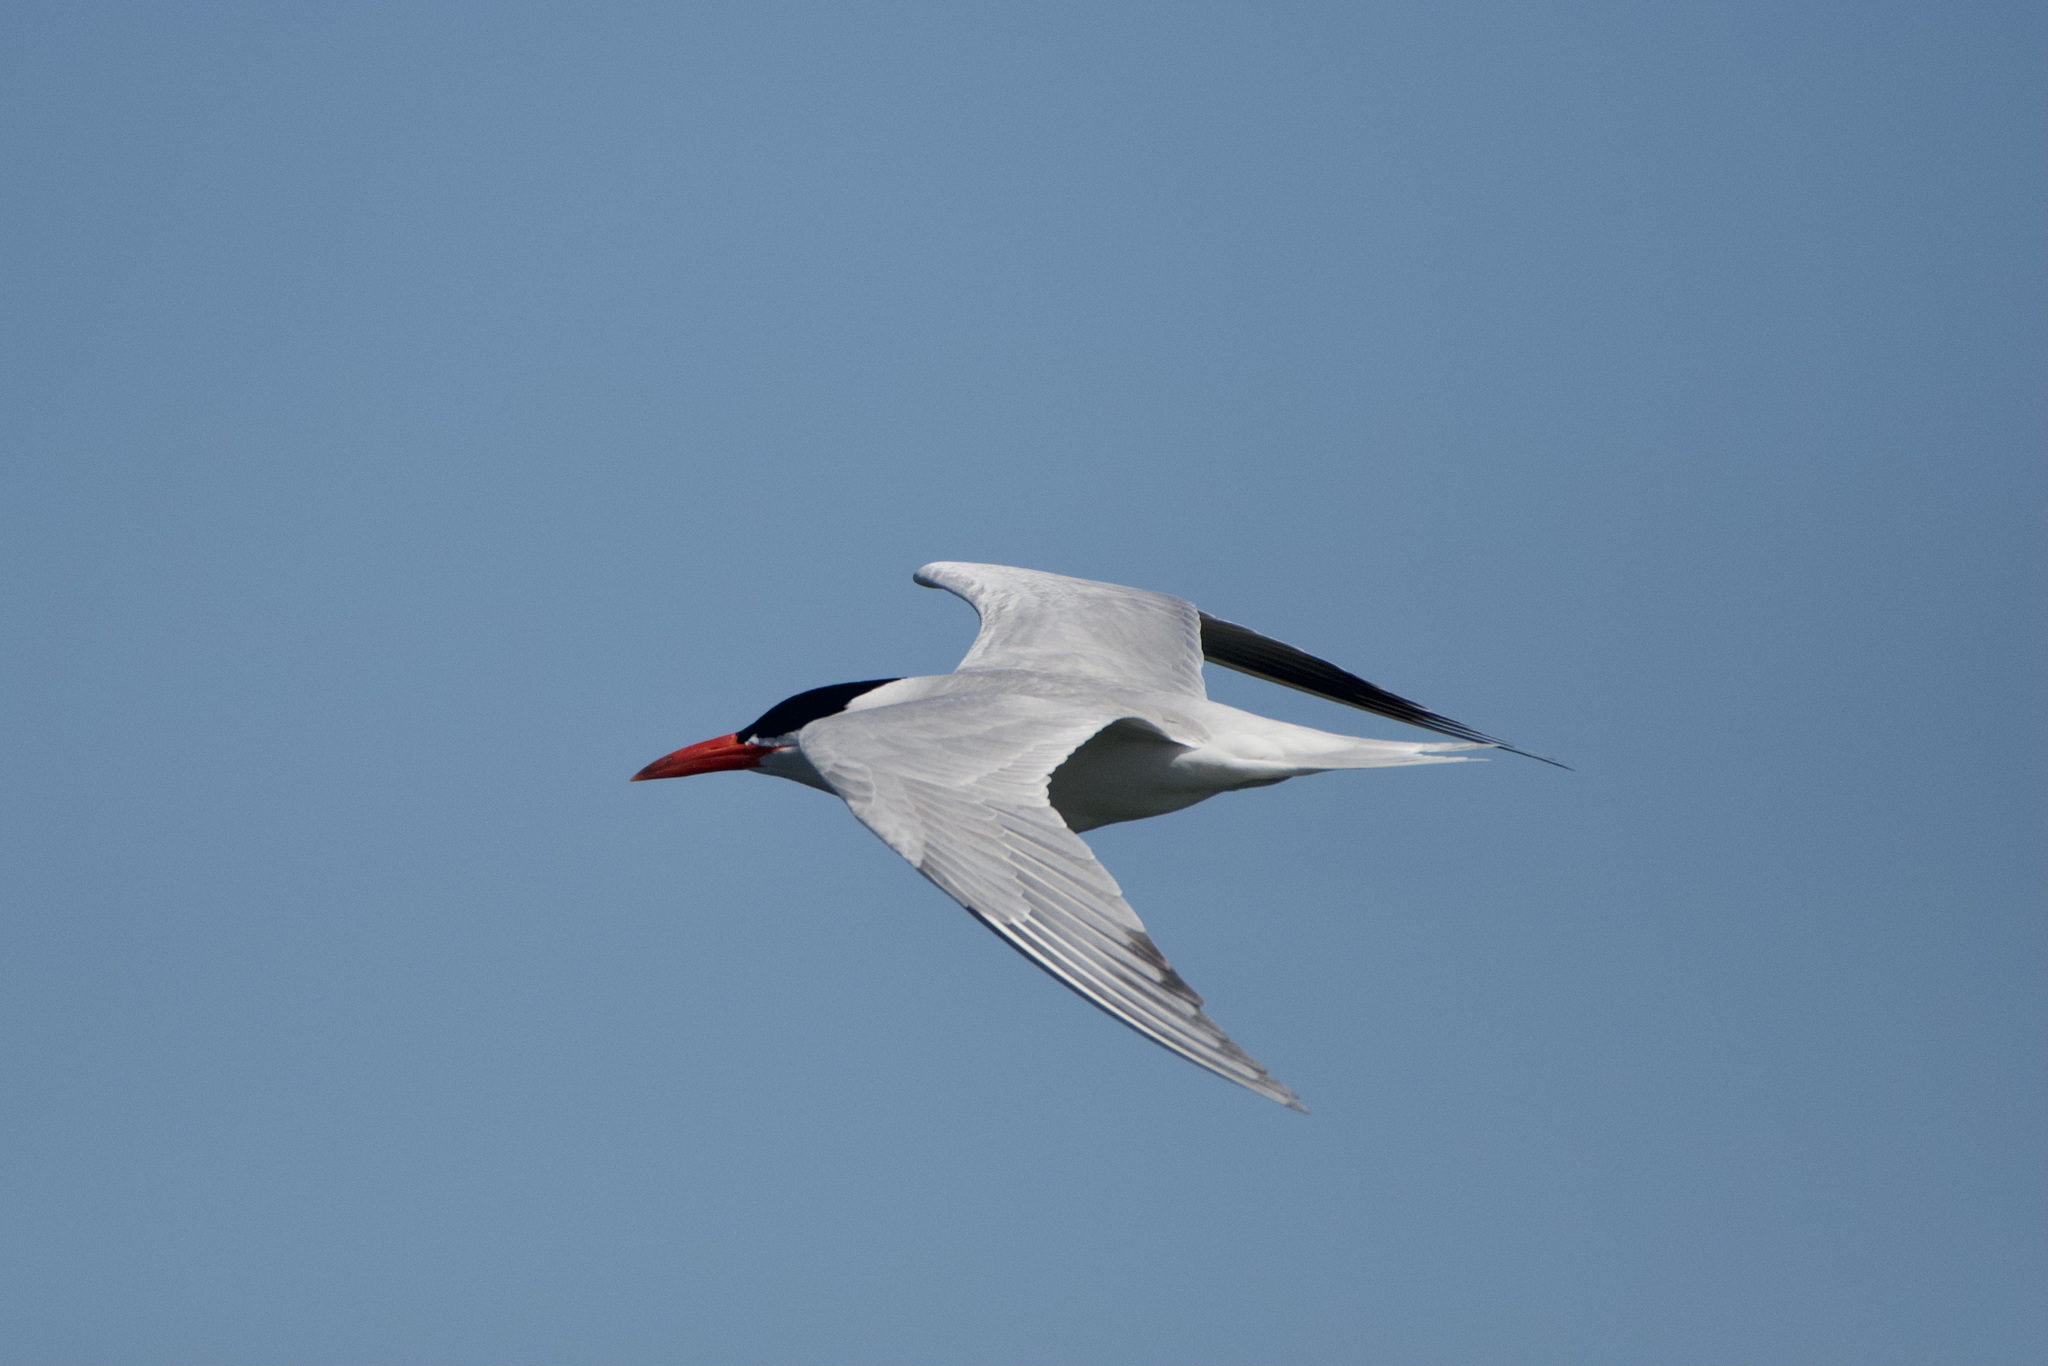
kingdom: Animalia
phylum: Chordata
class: Aves
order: Charadriiformes
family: Laridae
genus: Hydroprogne
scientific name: Hydroprogne caspia
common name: Caspian tern
